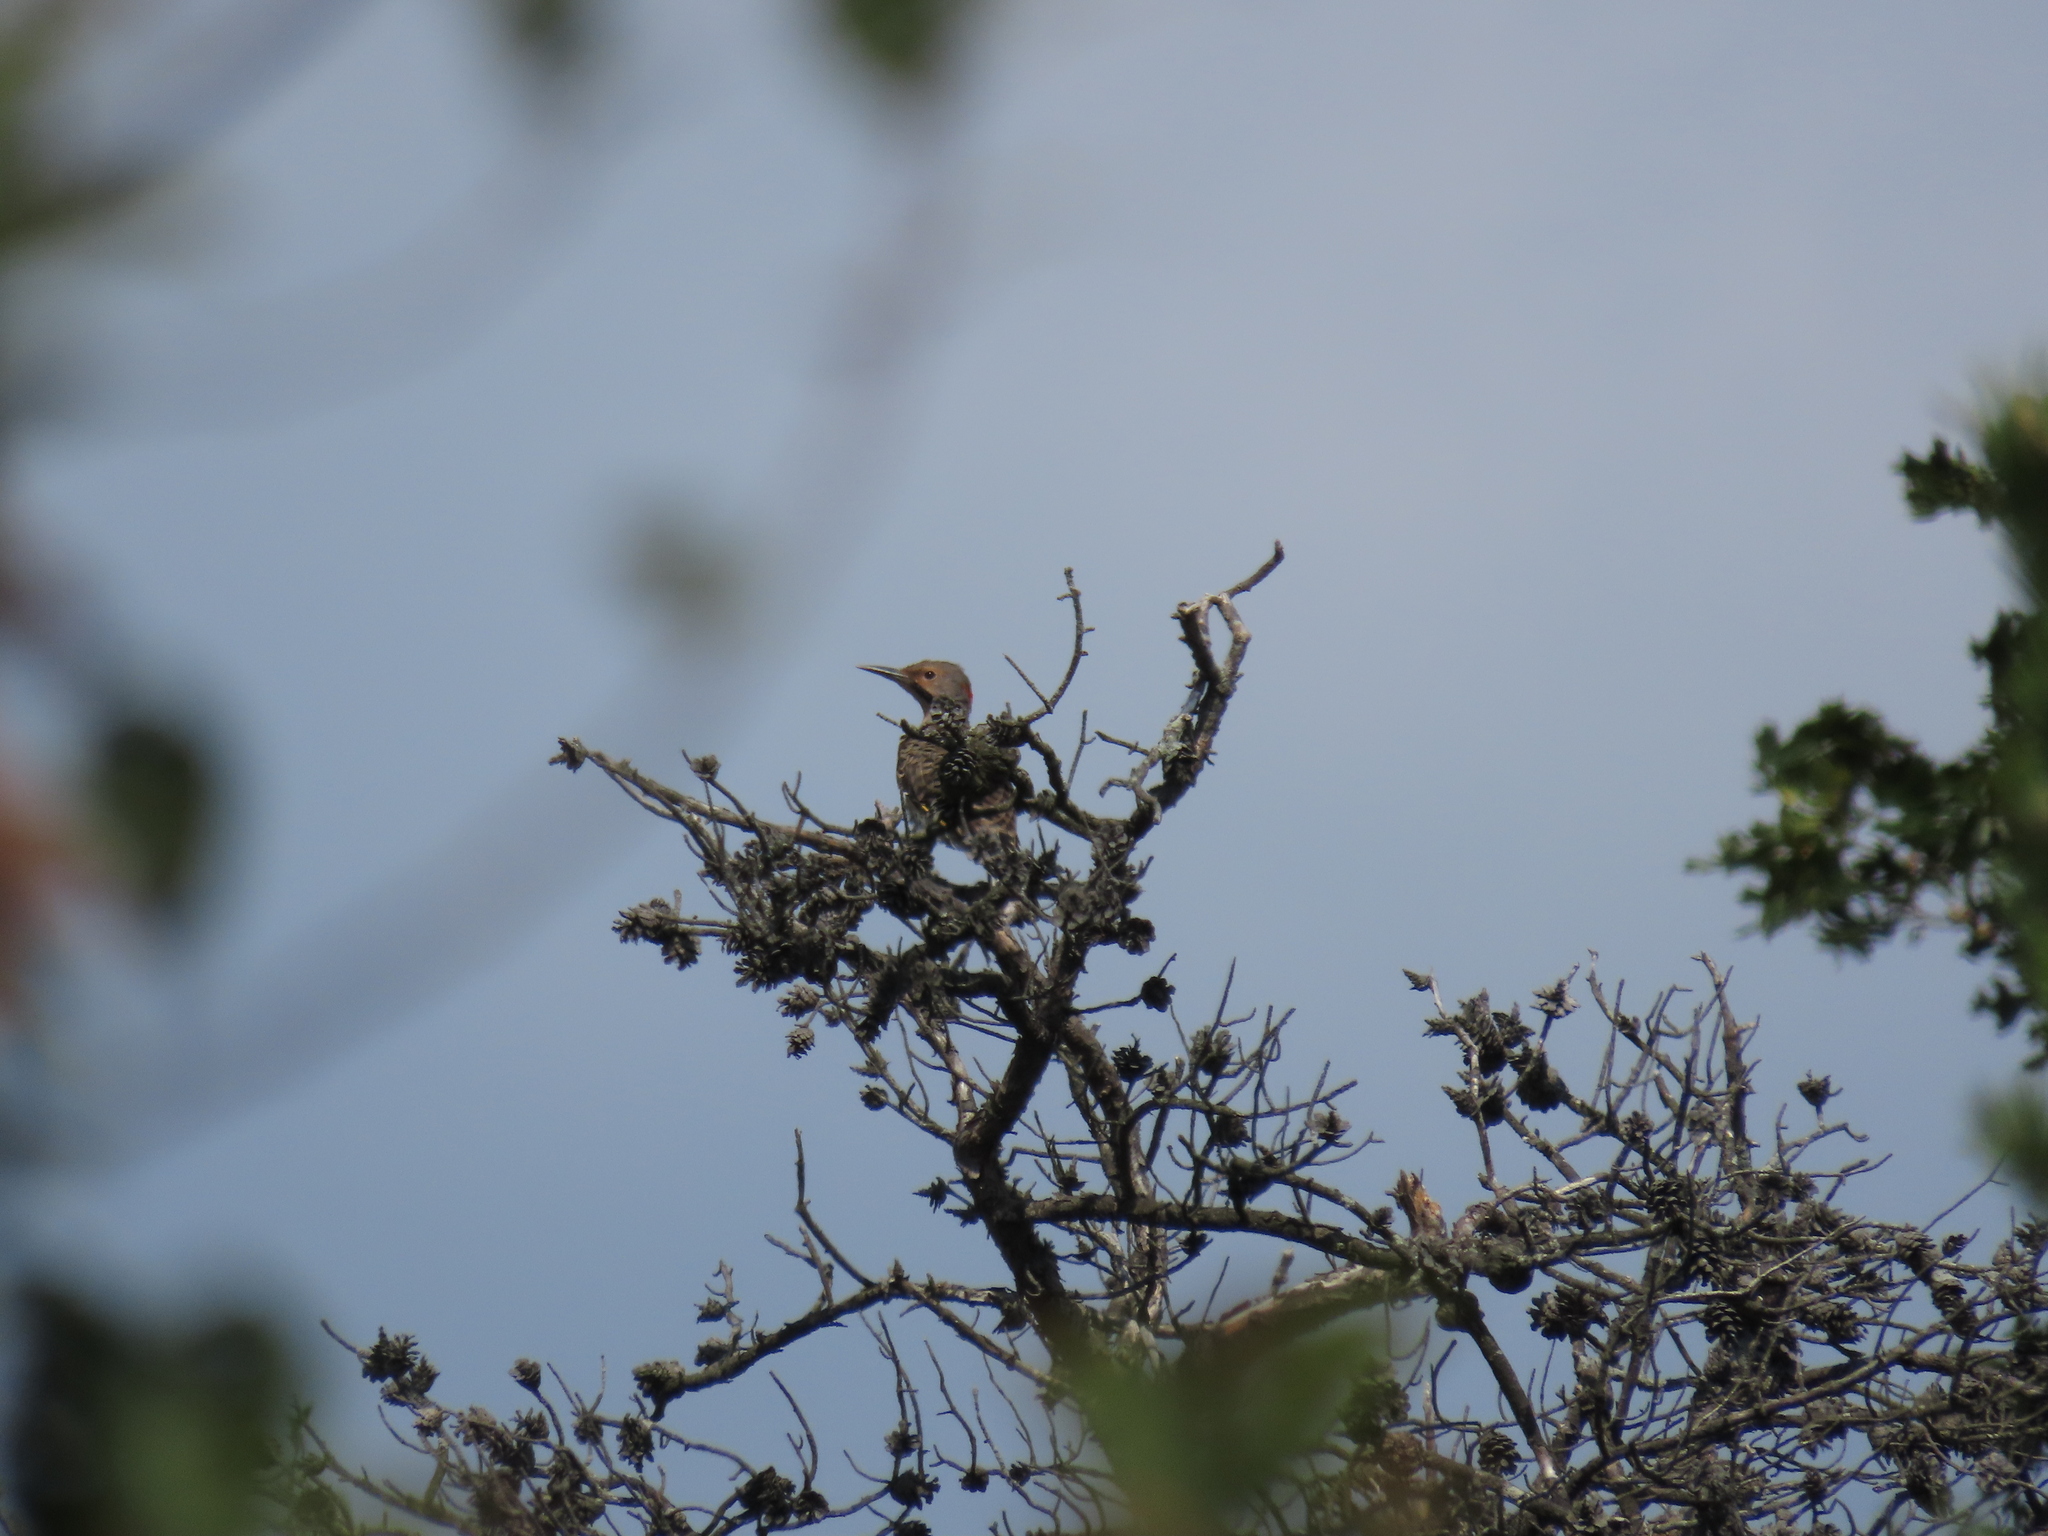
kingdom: Animalia
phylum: Chordata
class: Aves
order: Piciformes
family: Picidae
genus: Colaptes
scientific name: Colaptes auratus
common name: Northern flicker
